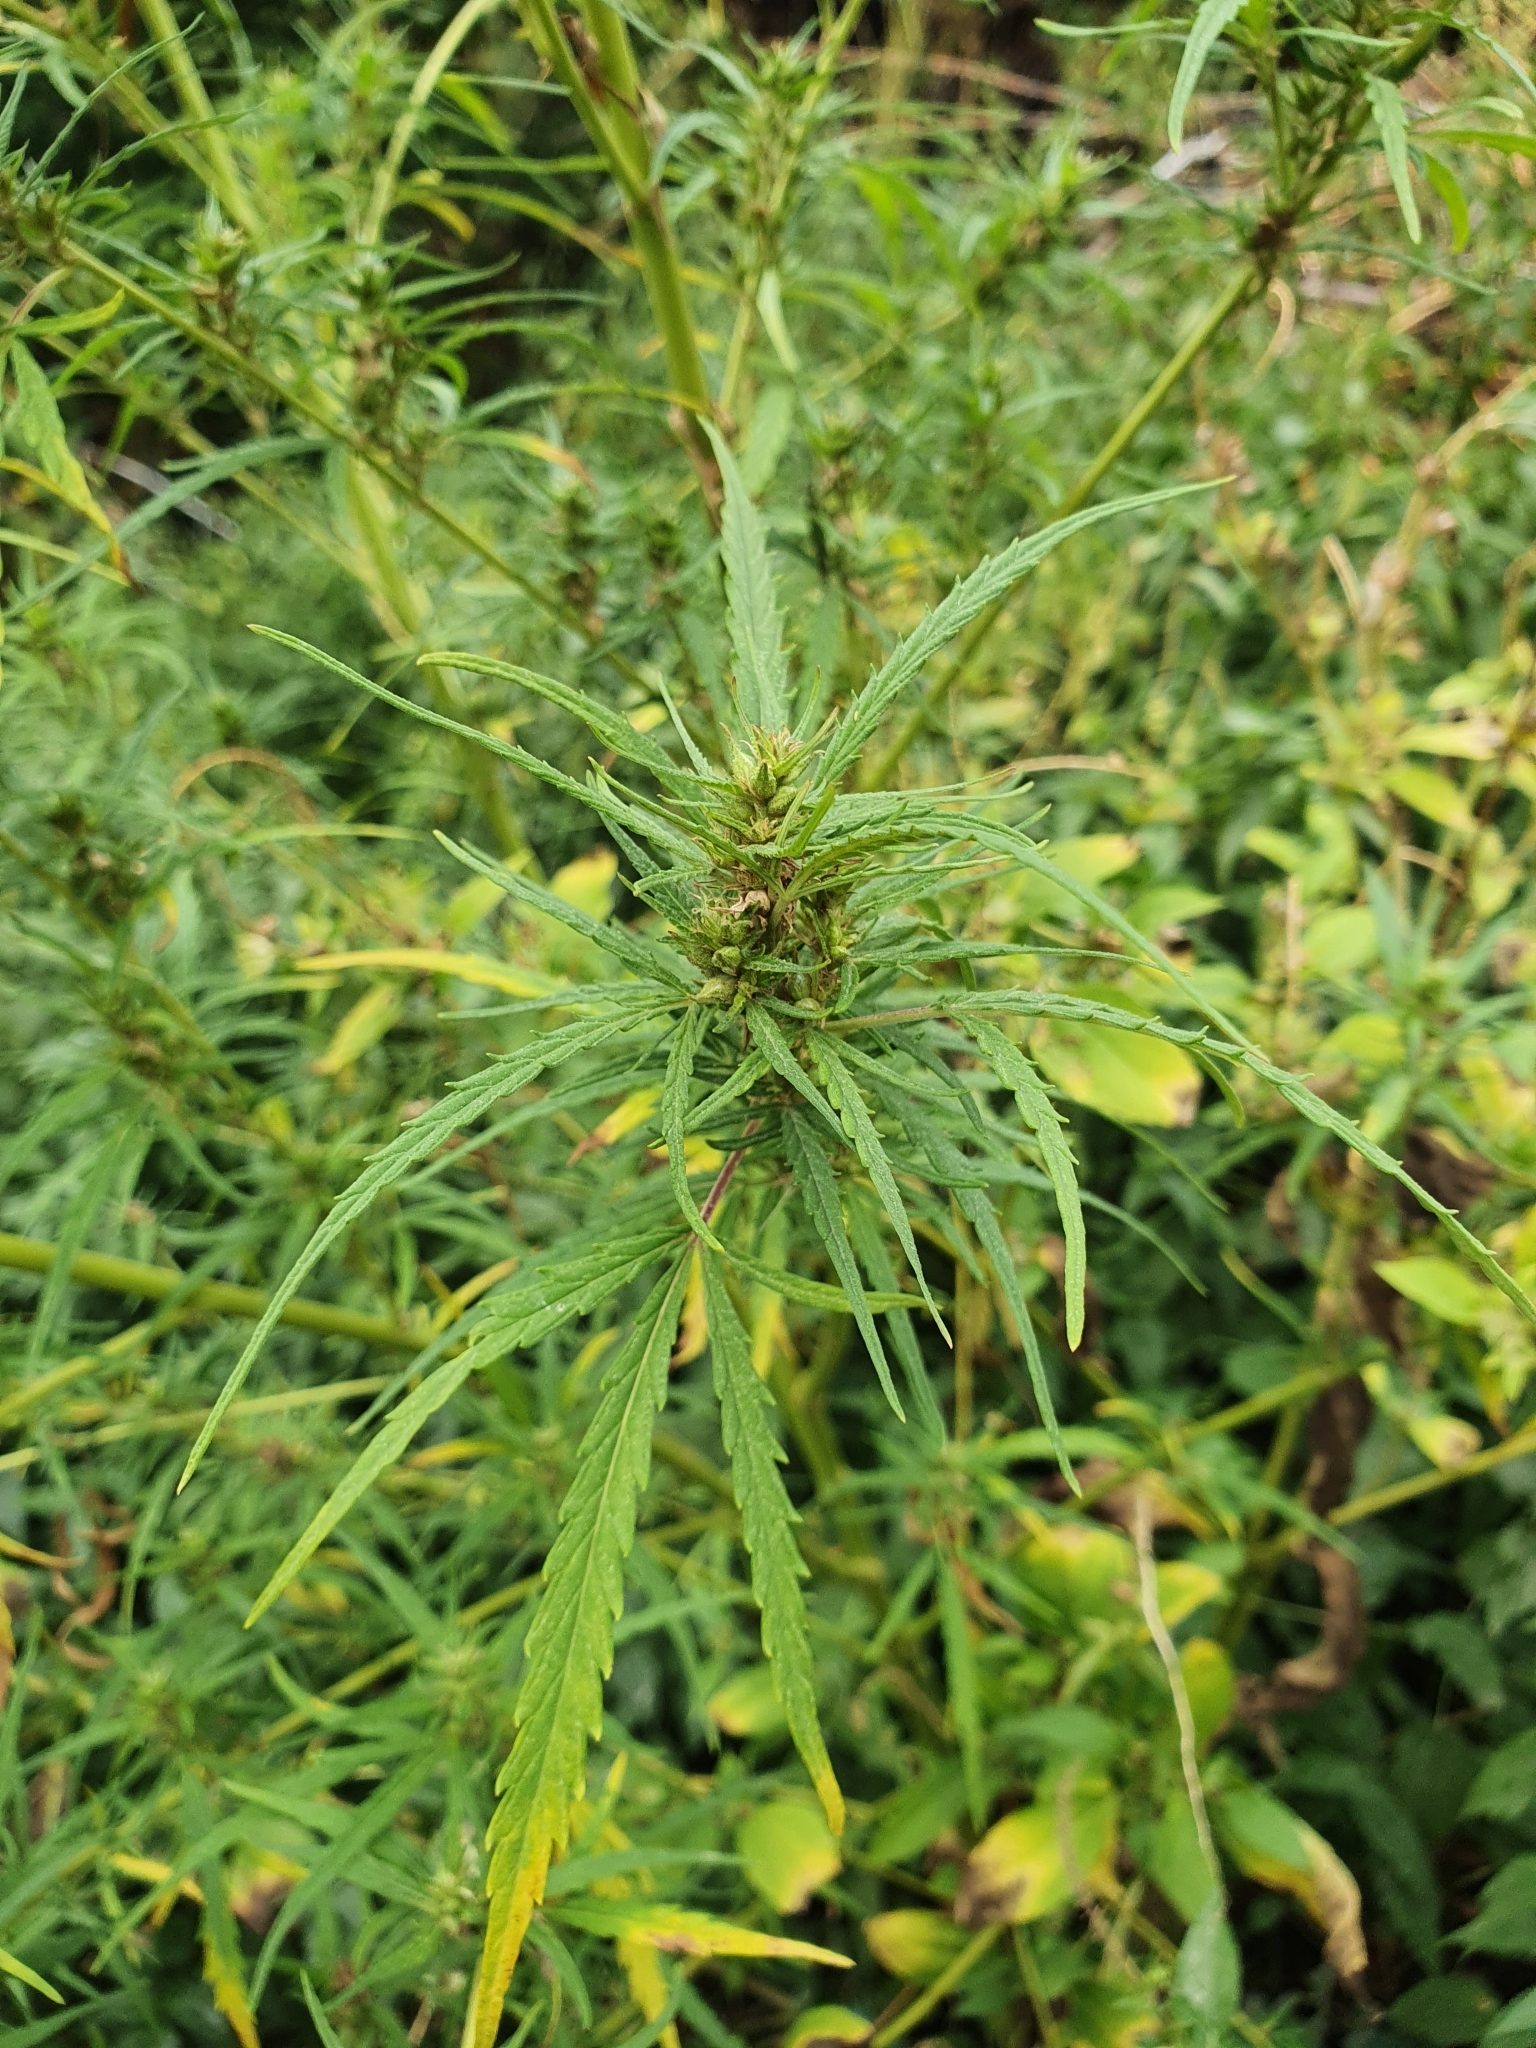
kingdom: Plantae
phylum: Tracheophyta
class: Magnoliopsida
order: Rosales
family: Cannabaceae
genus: Cannabis
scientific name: Cannabis sativa
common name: Hemp
